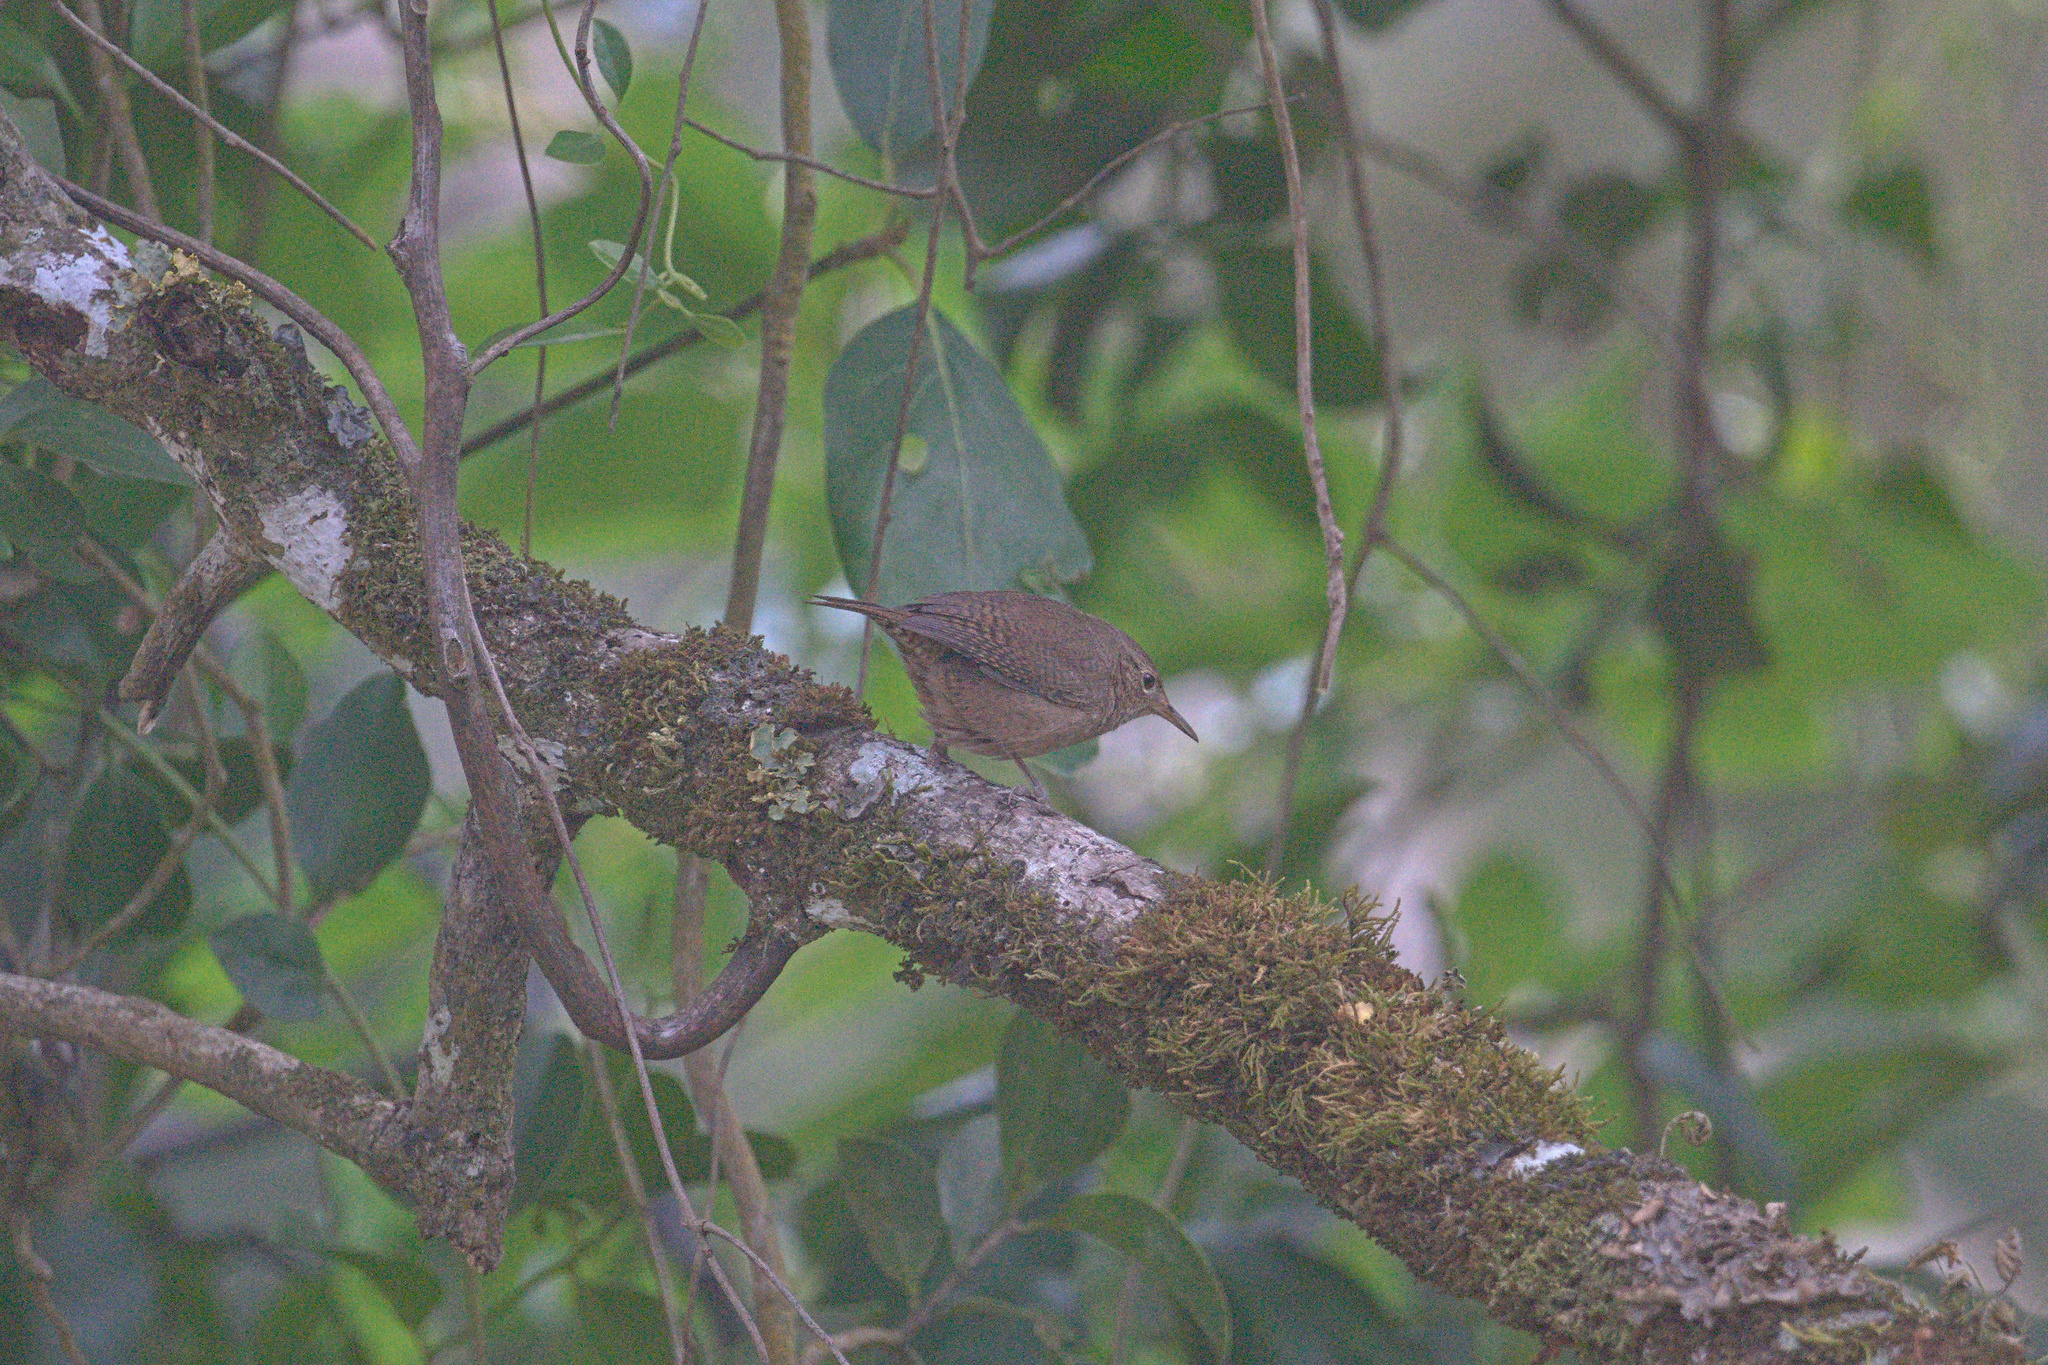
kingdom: Animalia
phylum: Chordata
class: Aves
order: Passeriformes
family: Troglodytidae
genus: Troglodytes
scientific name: Troglodytes aedon
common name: House wren
